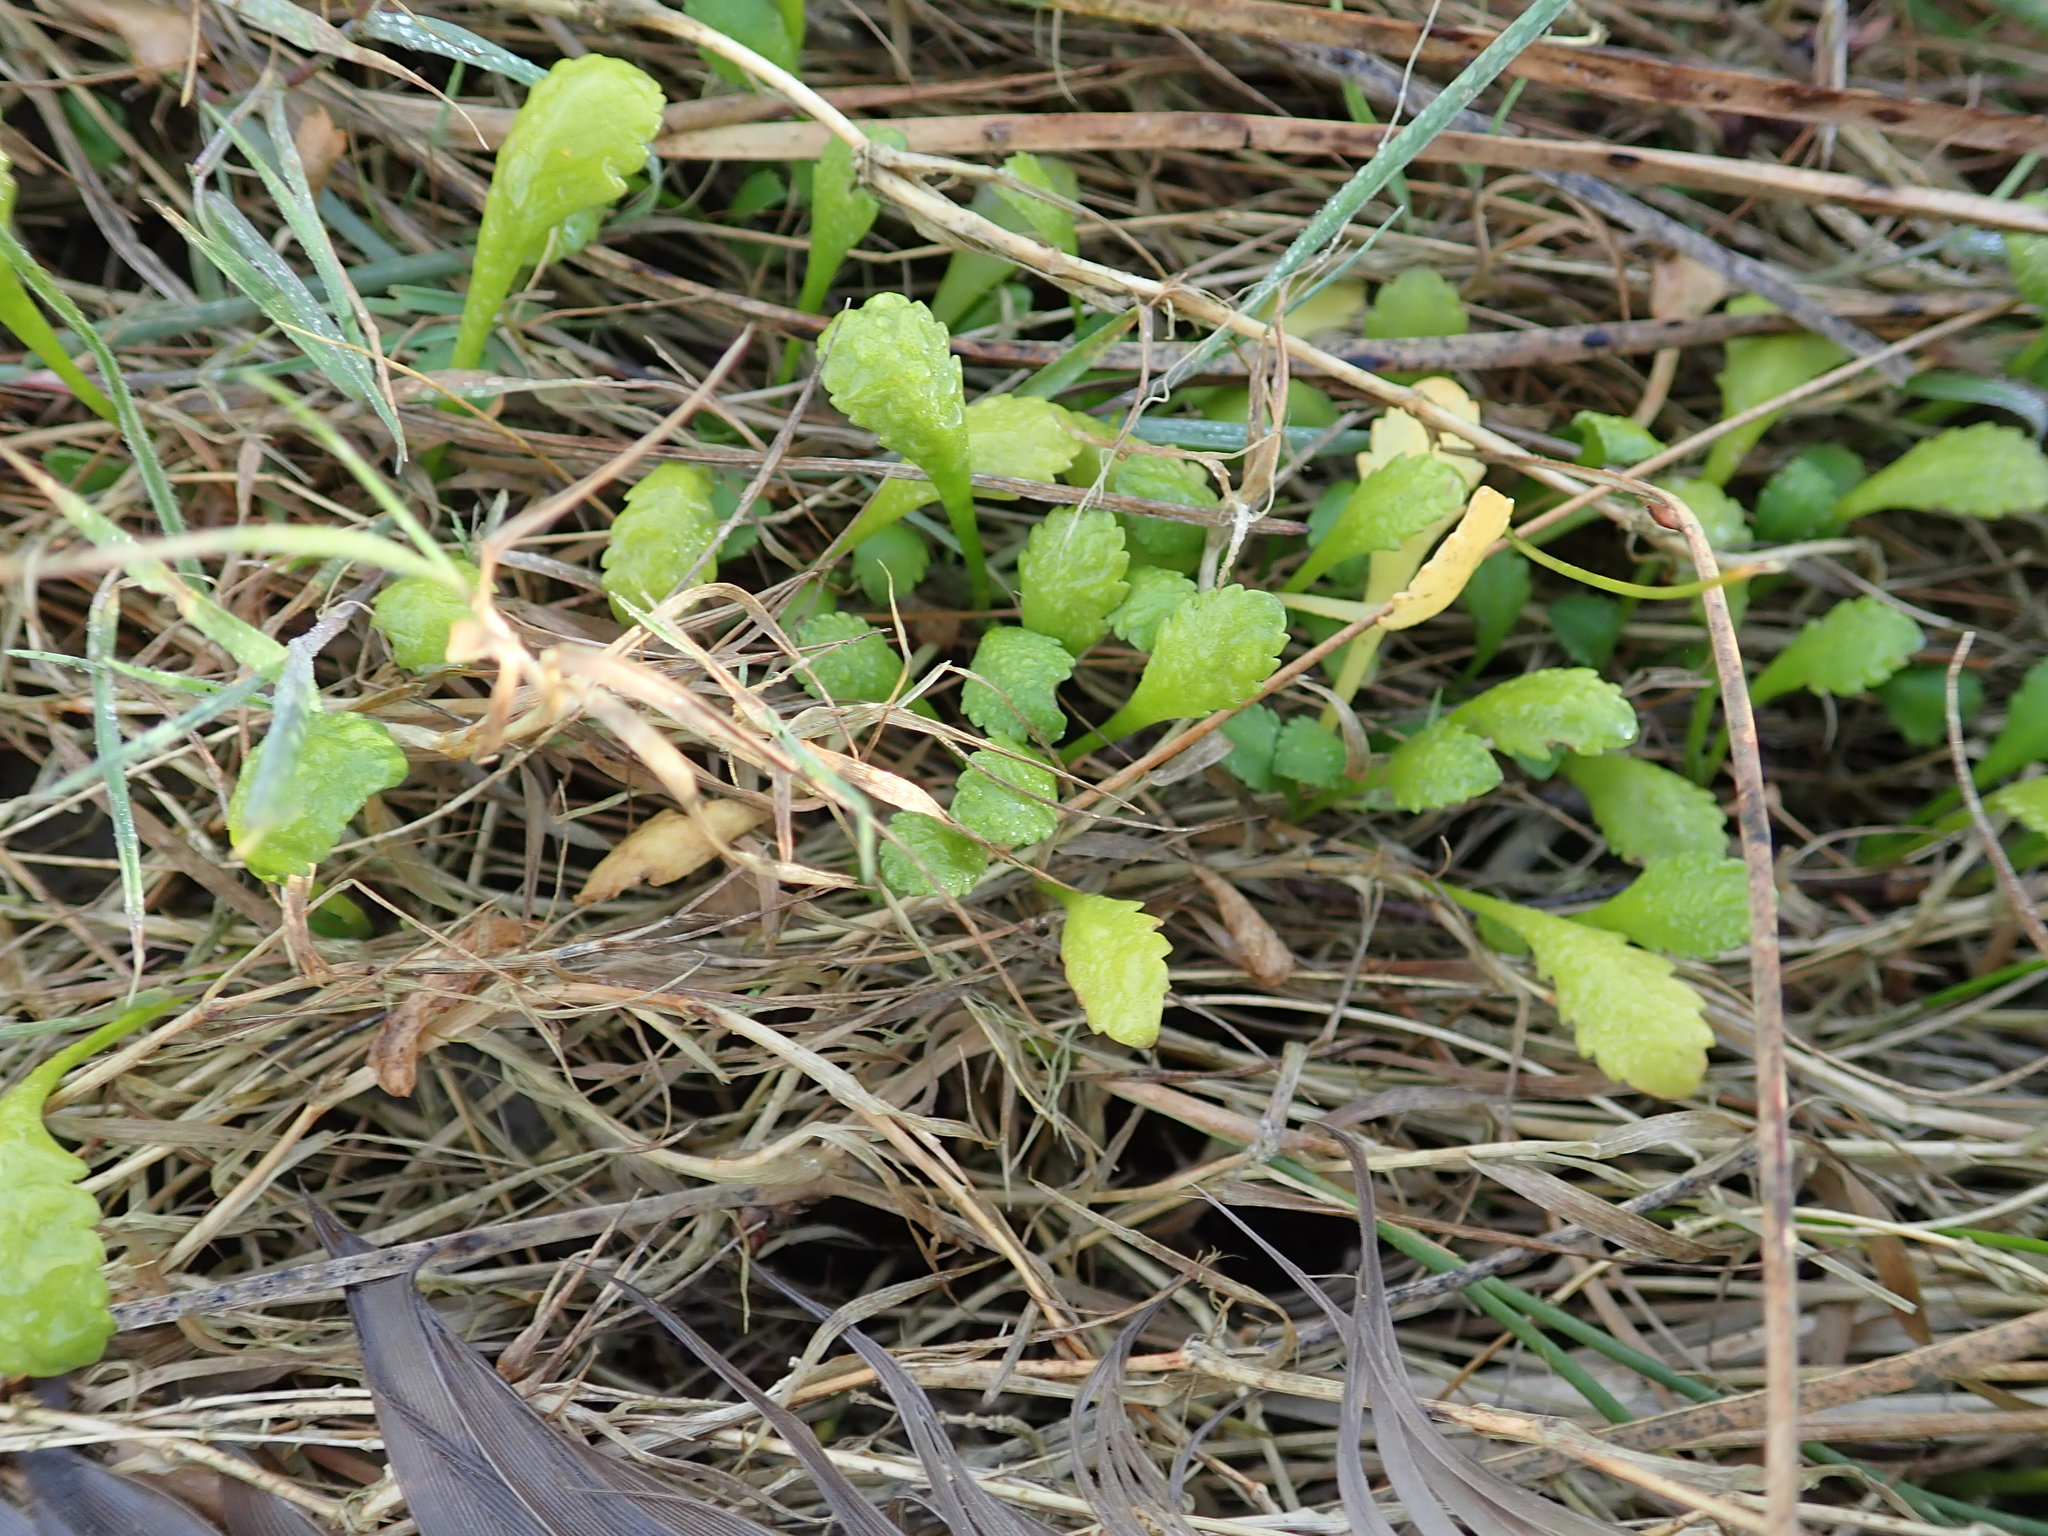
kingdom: Plantae
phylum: Tracheophyta
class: Magnoliopsida
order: Asterales
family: Asteraceae
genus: Leptinella
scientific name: Leptinella dioica
